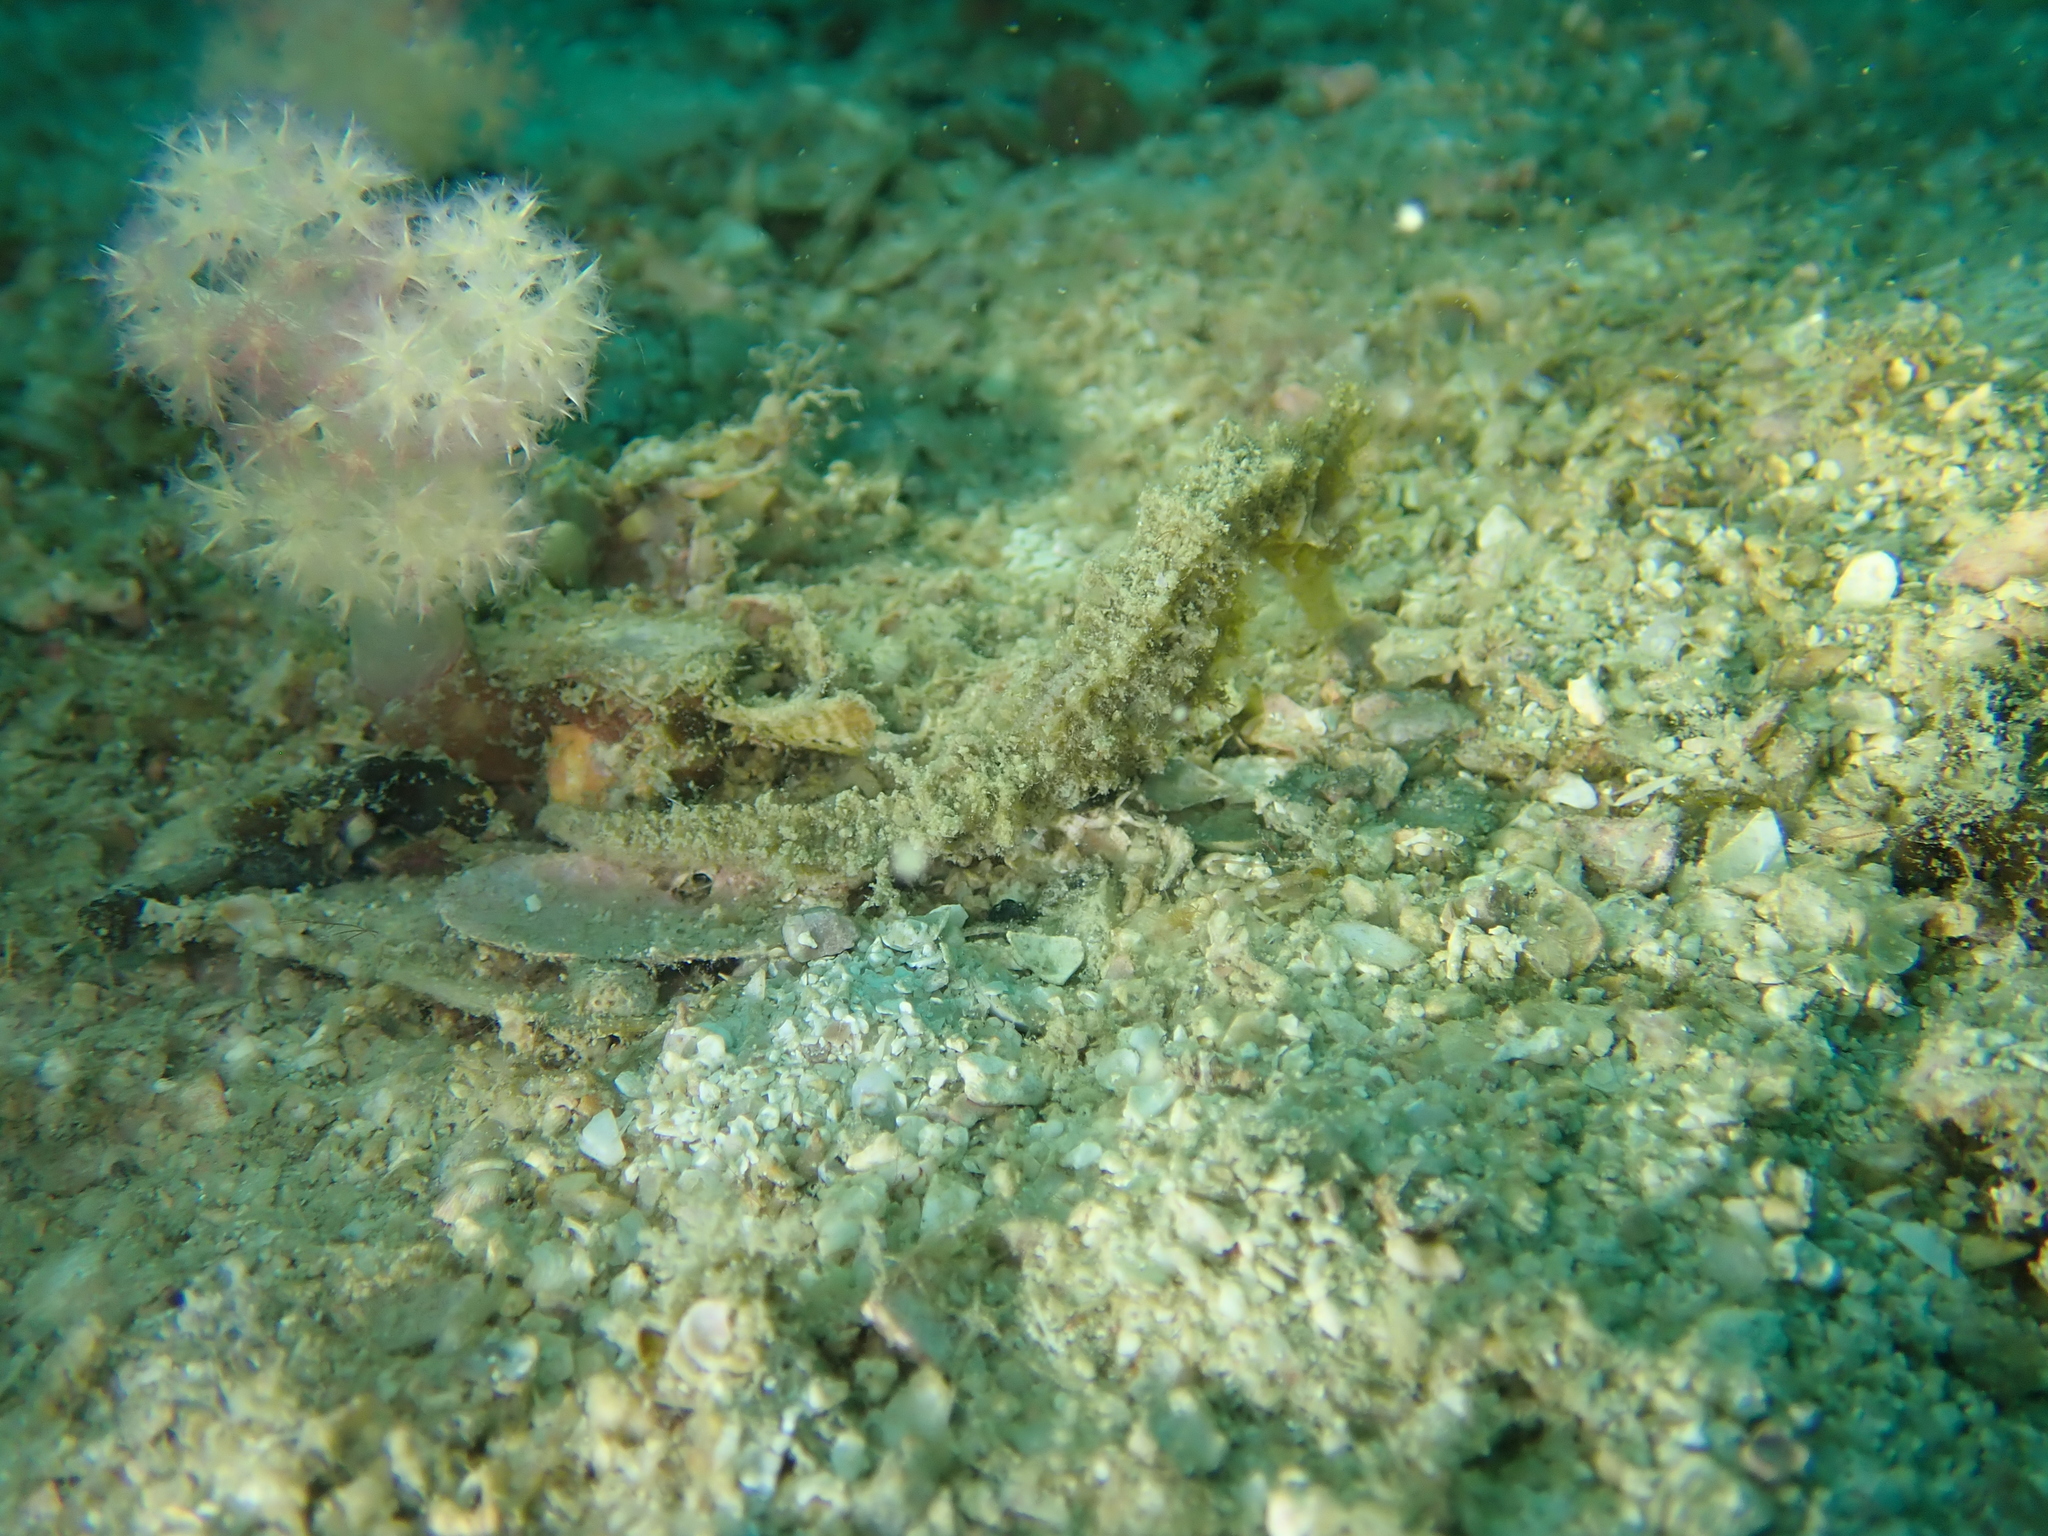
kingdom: Animalia
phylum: Chordata
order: Syngnathiformes
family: Syngnathidae
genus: Hippocampus
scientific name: Hippocampus spinosissimus
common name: Hedgehog seahorse
